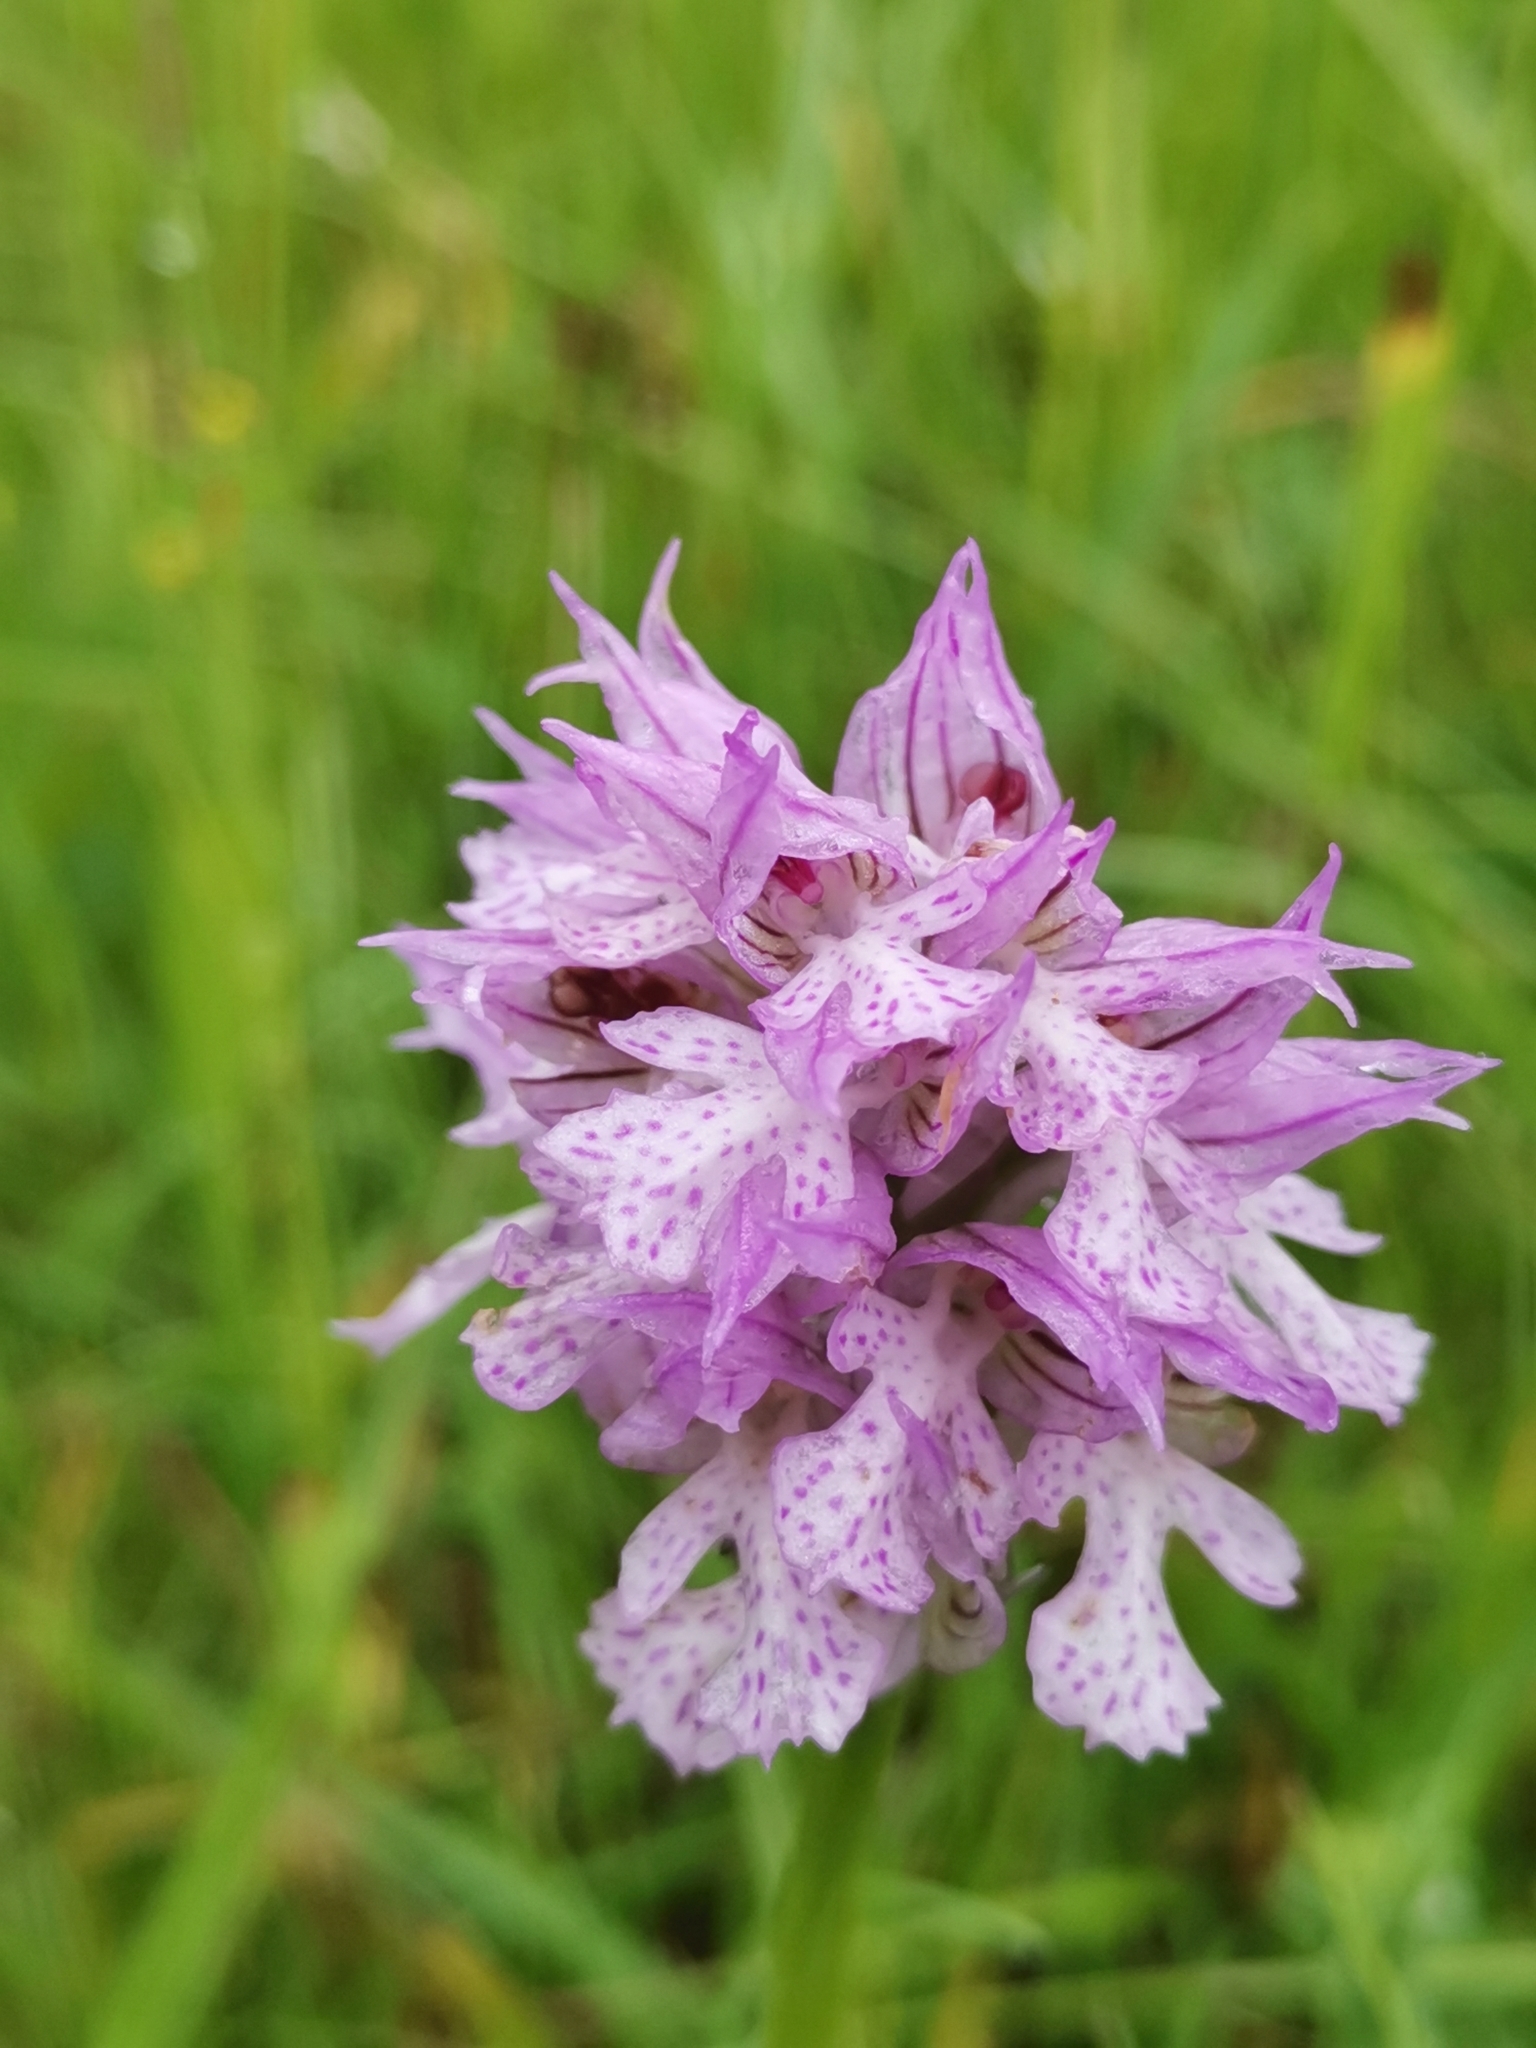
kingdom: Plantae
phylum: Tracheophyta
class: Liliopsida
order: Asparagales
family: Orchidaceae
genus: Neotinea
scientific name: Neotinea tridentata
